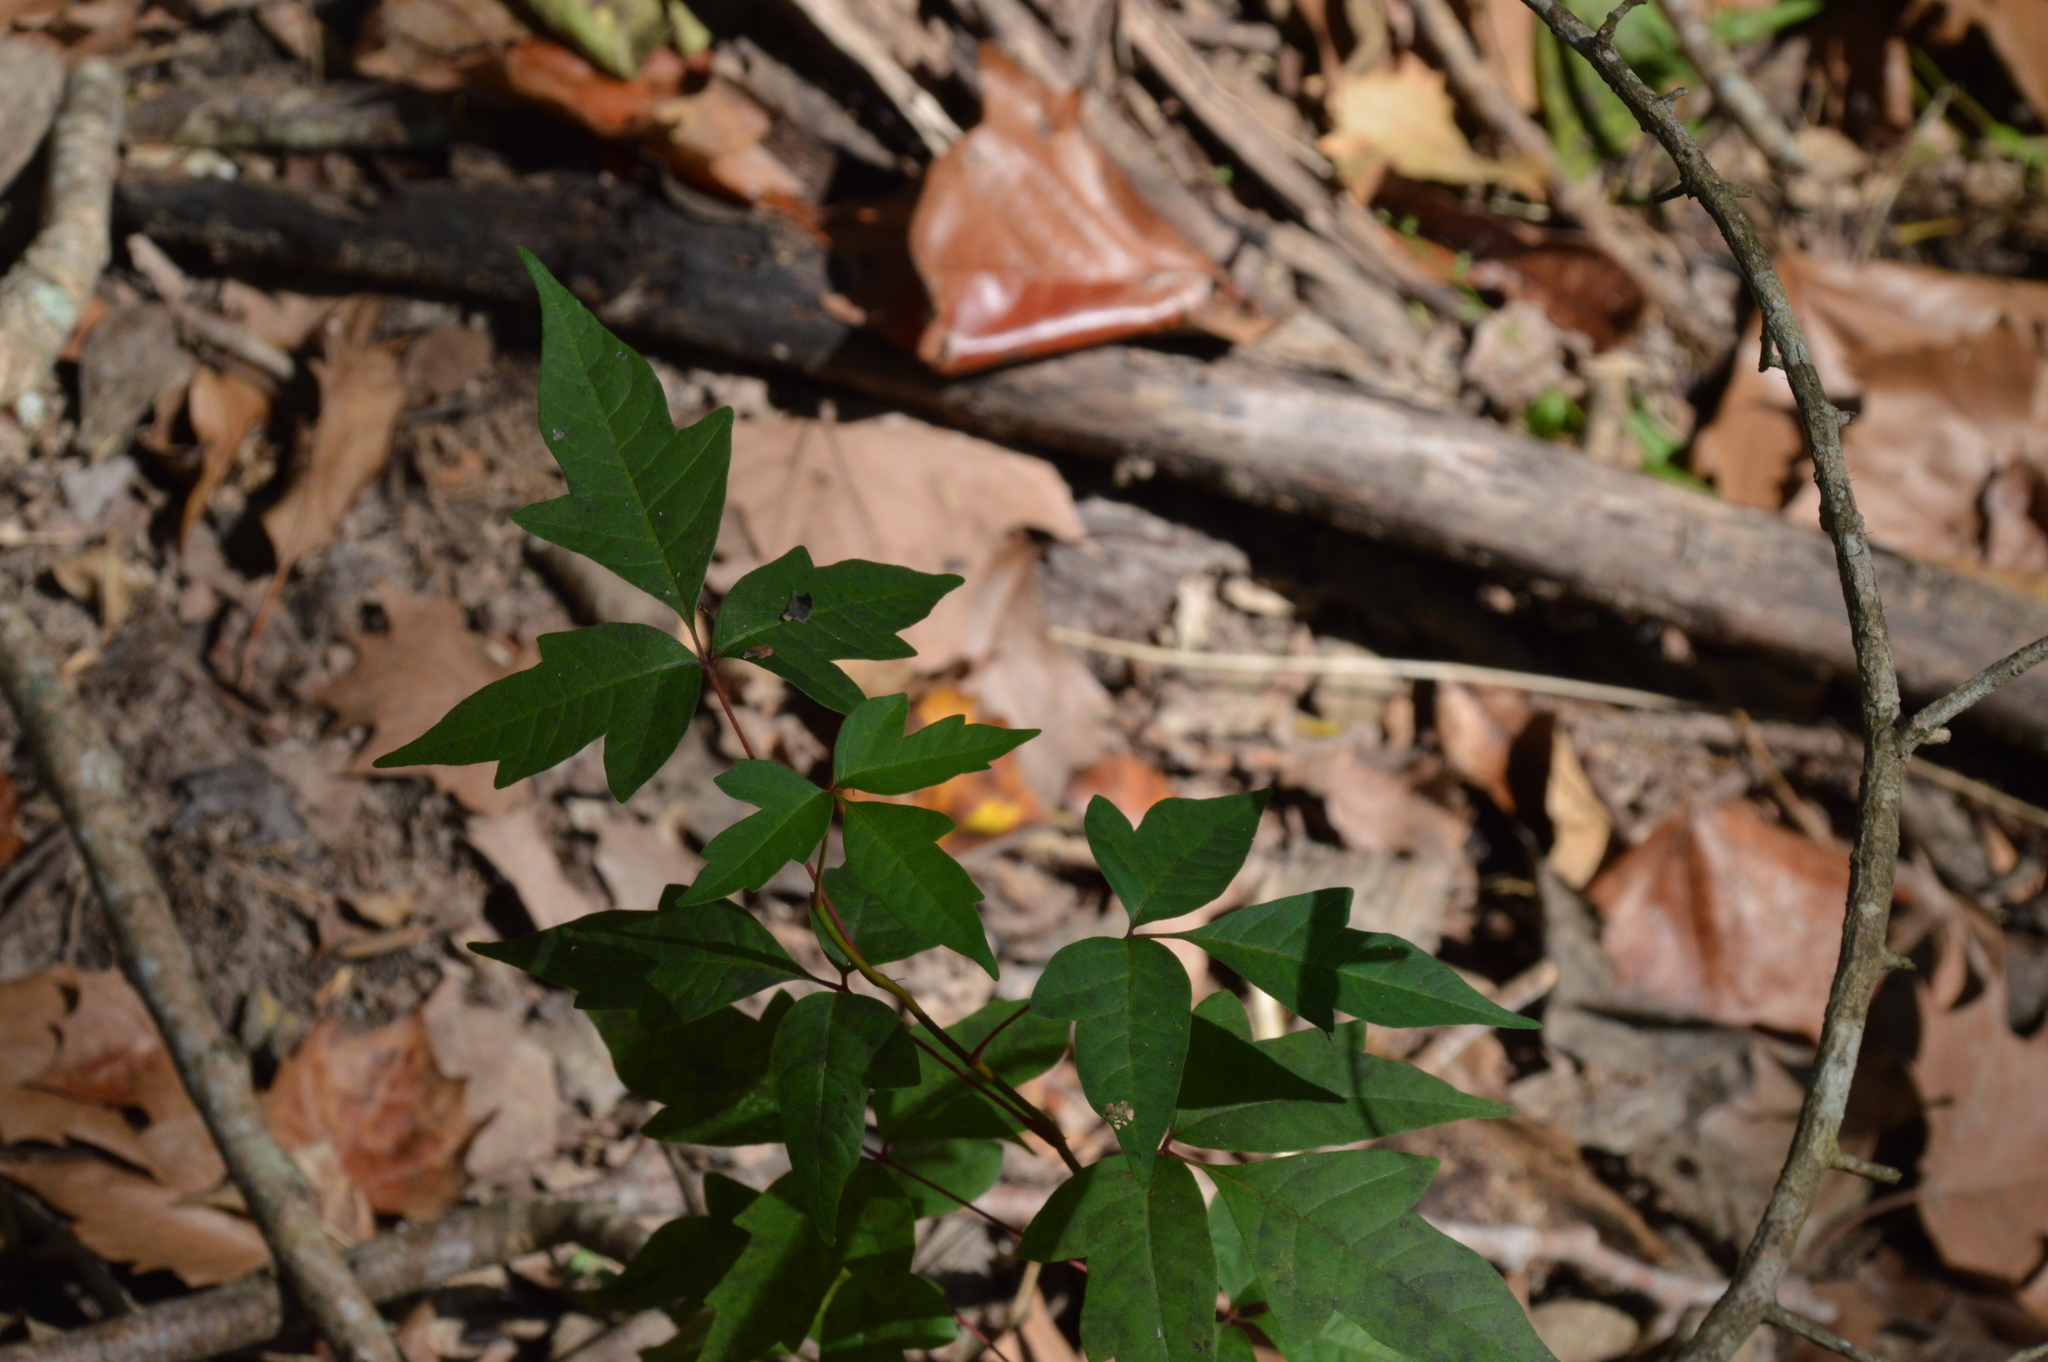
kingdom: Plantae
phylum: Tracheophyta
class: Magnoliopsida
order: Sapindales
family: Anacardiaceae
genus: Toxicodendron
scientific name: Toxicodendron radicans
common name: Poison ivy
